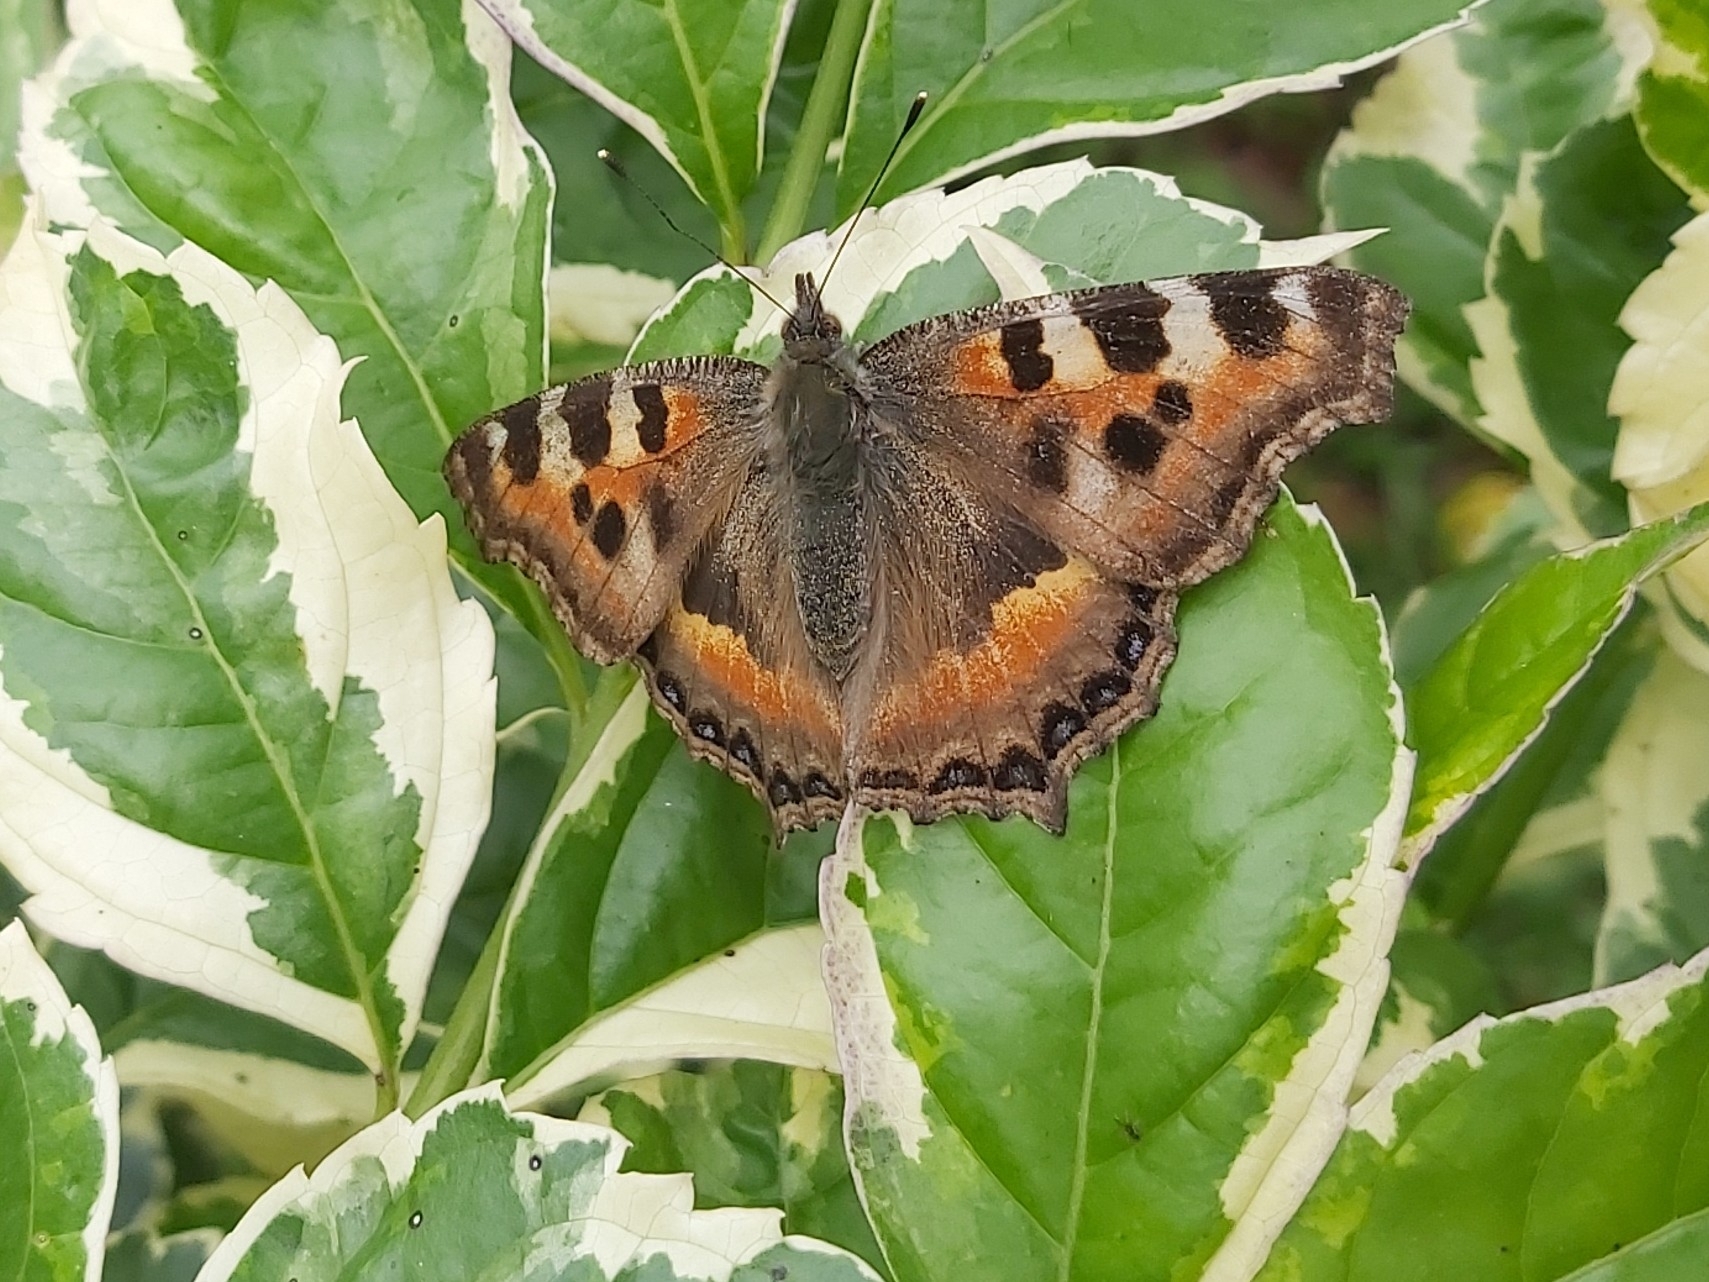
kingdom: Animalia
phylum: Arthropoda
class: Insecta
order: Lepidoptera
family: Nymphalidae
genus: Aglais
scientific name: Aglais caschmirensis
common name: Indian tortoiseshell
